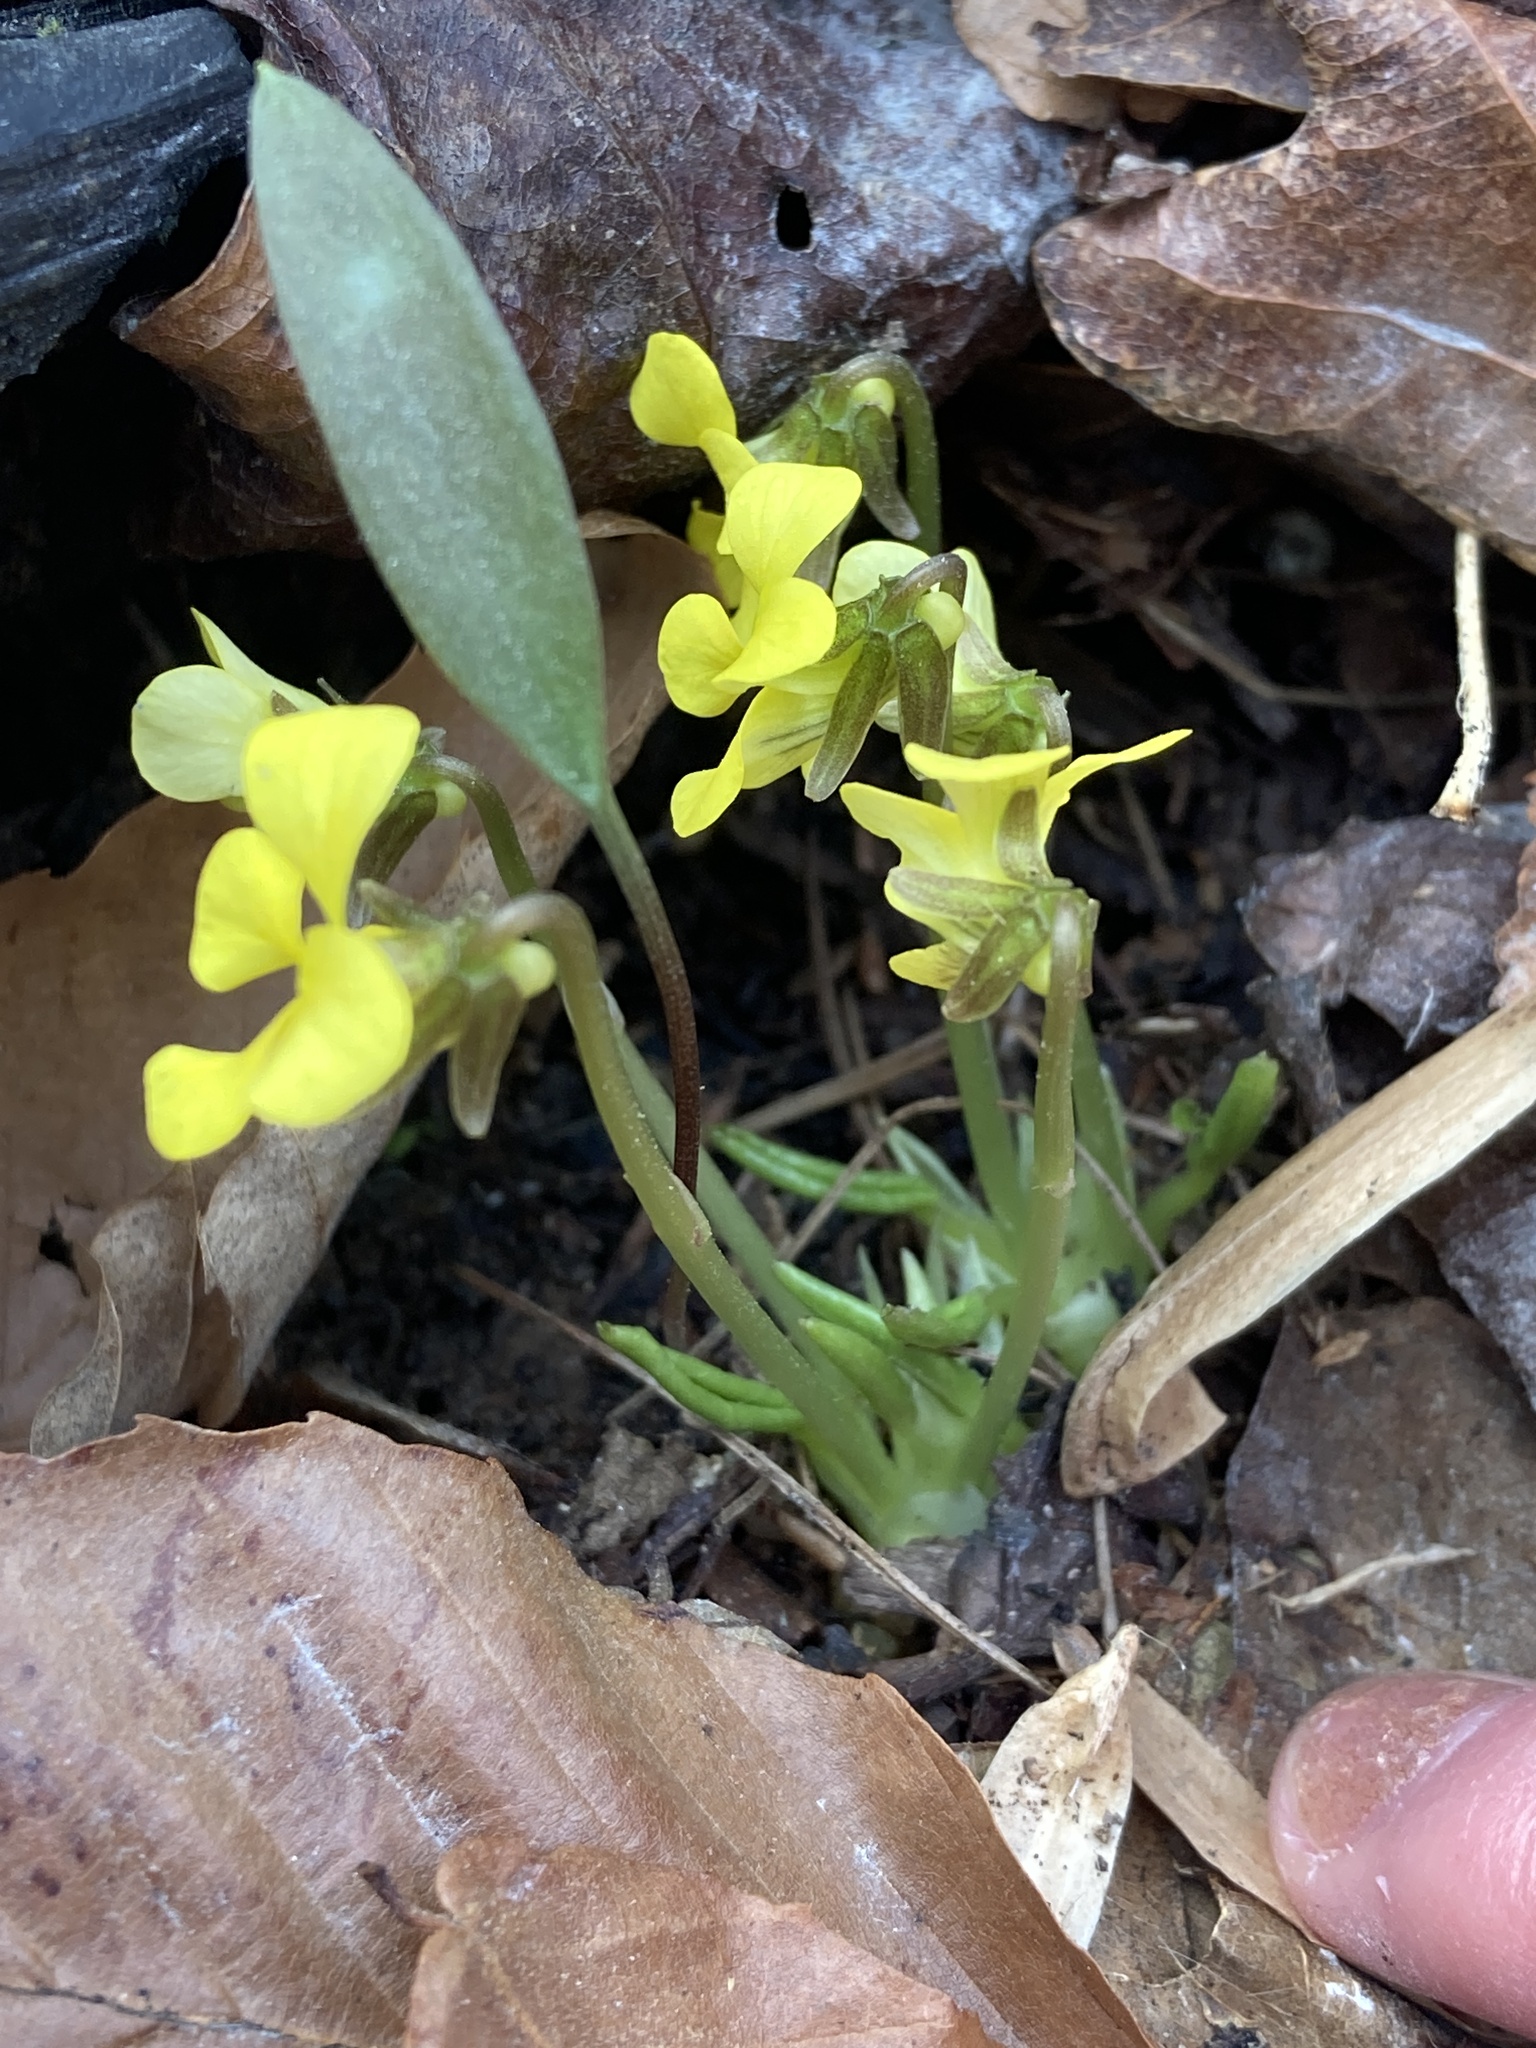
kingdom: Plantae
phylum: Tracheophyta
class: Magnoliopsida
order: Malpighiales
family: Violaceae
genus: Viola
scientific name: Viola rotundifolia
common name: Early yellow violet
